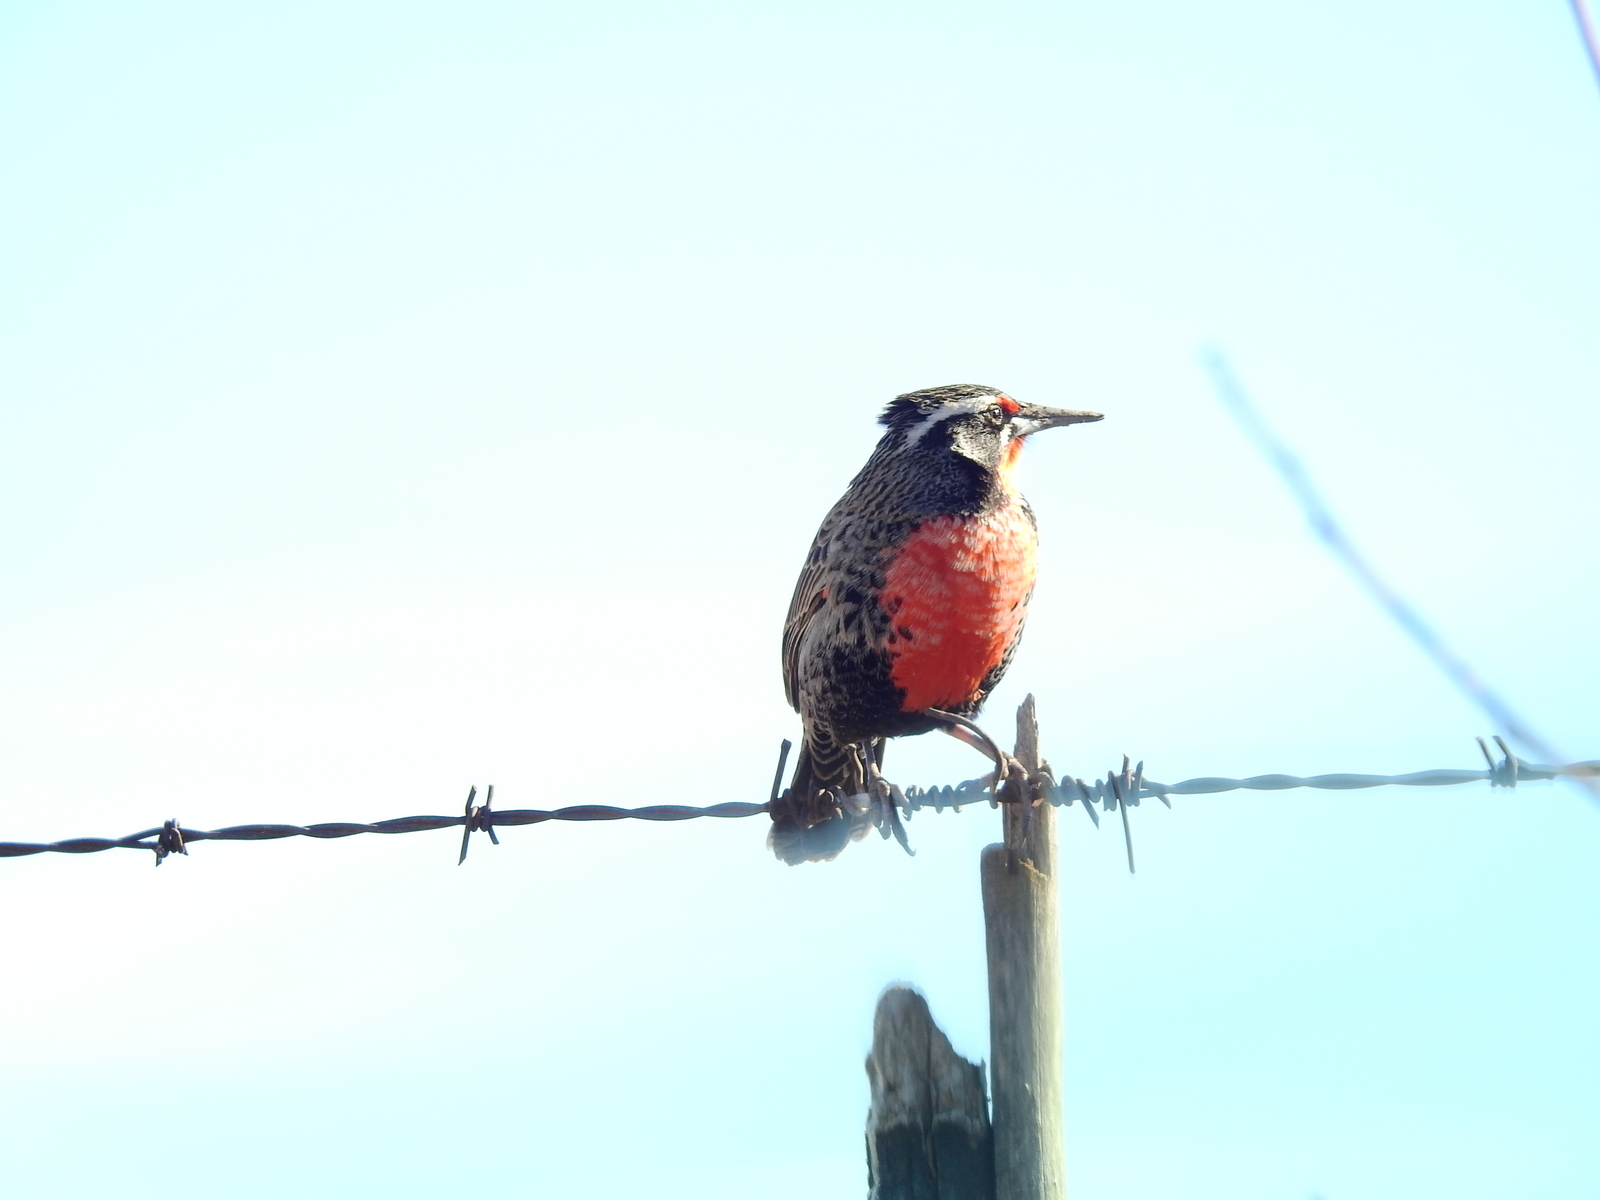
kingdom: Animalia
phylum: Chordata
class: Aves
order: Passeriformes
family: Icteridae
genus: Sturnella
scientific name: Sturnella loyca
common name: Long-tailed meadowlark
